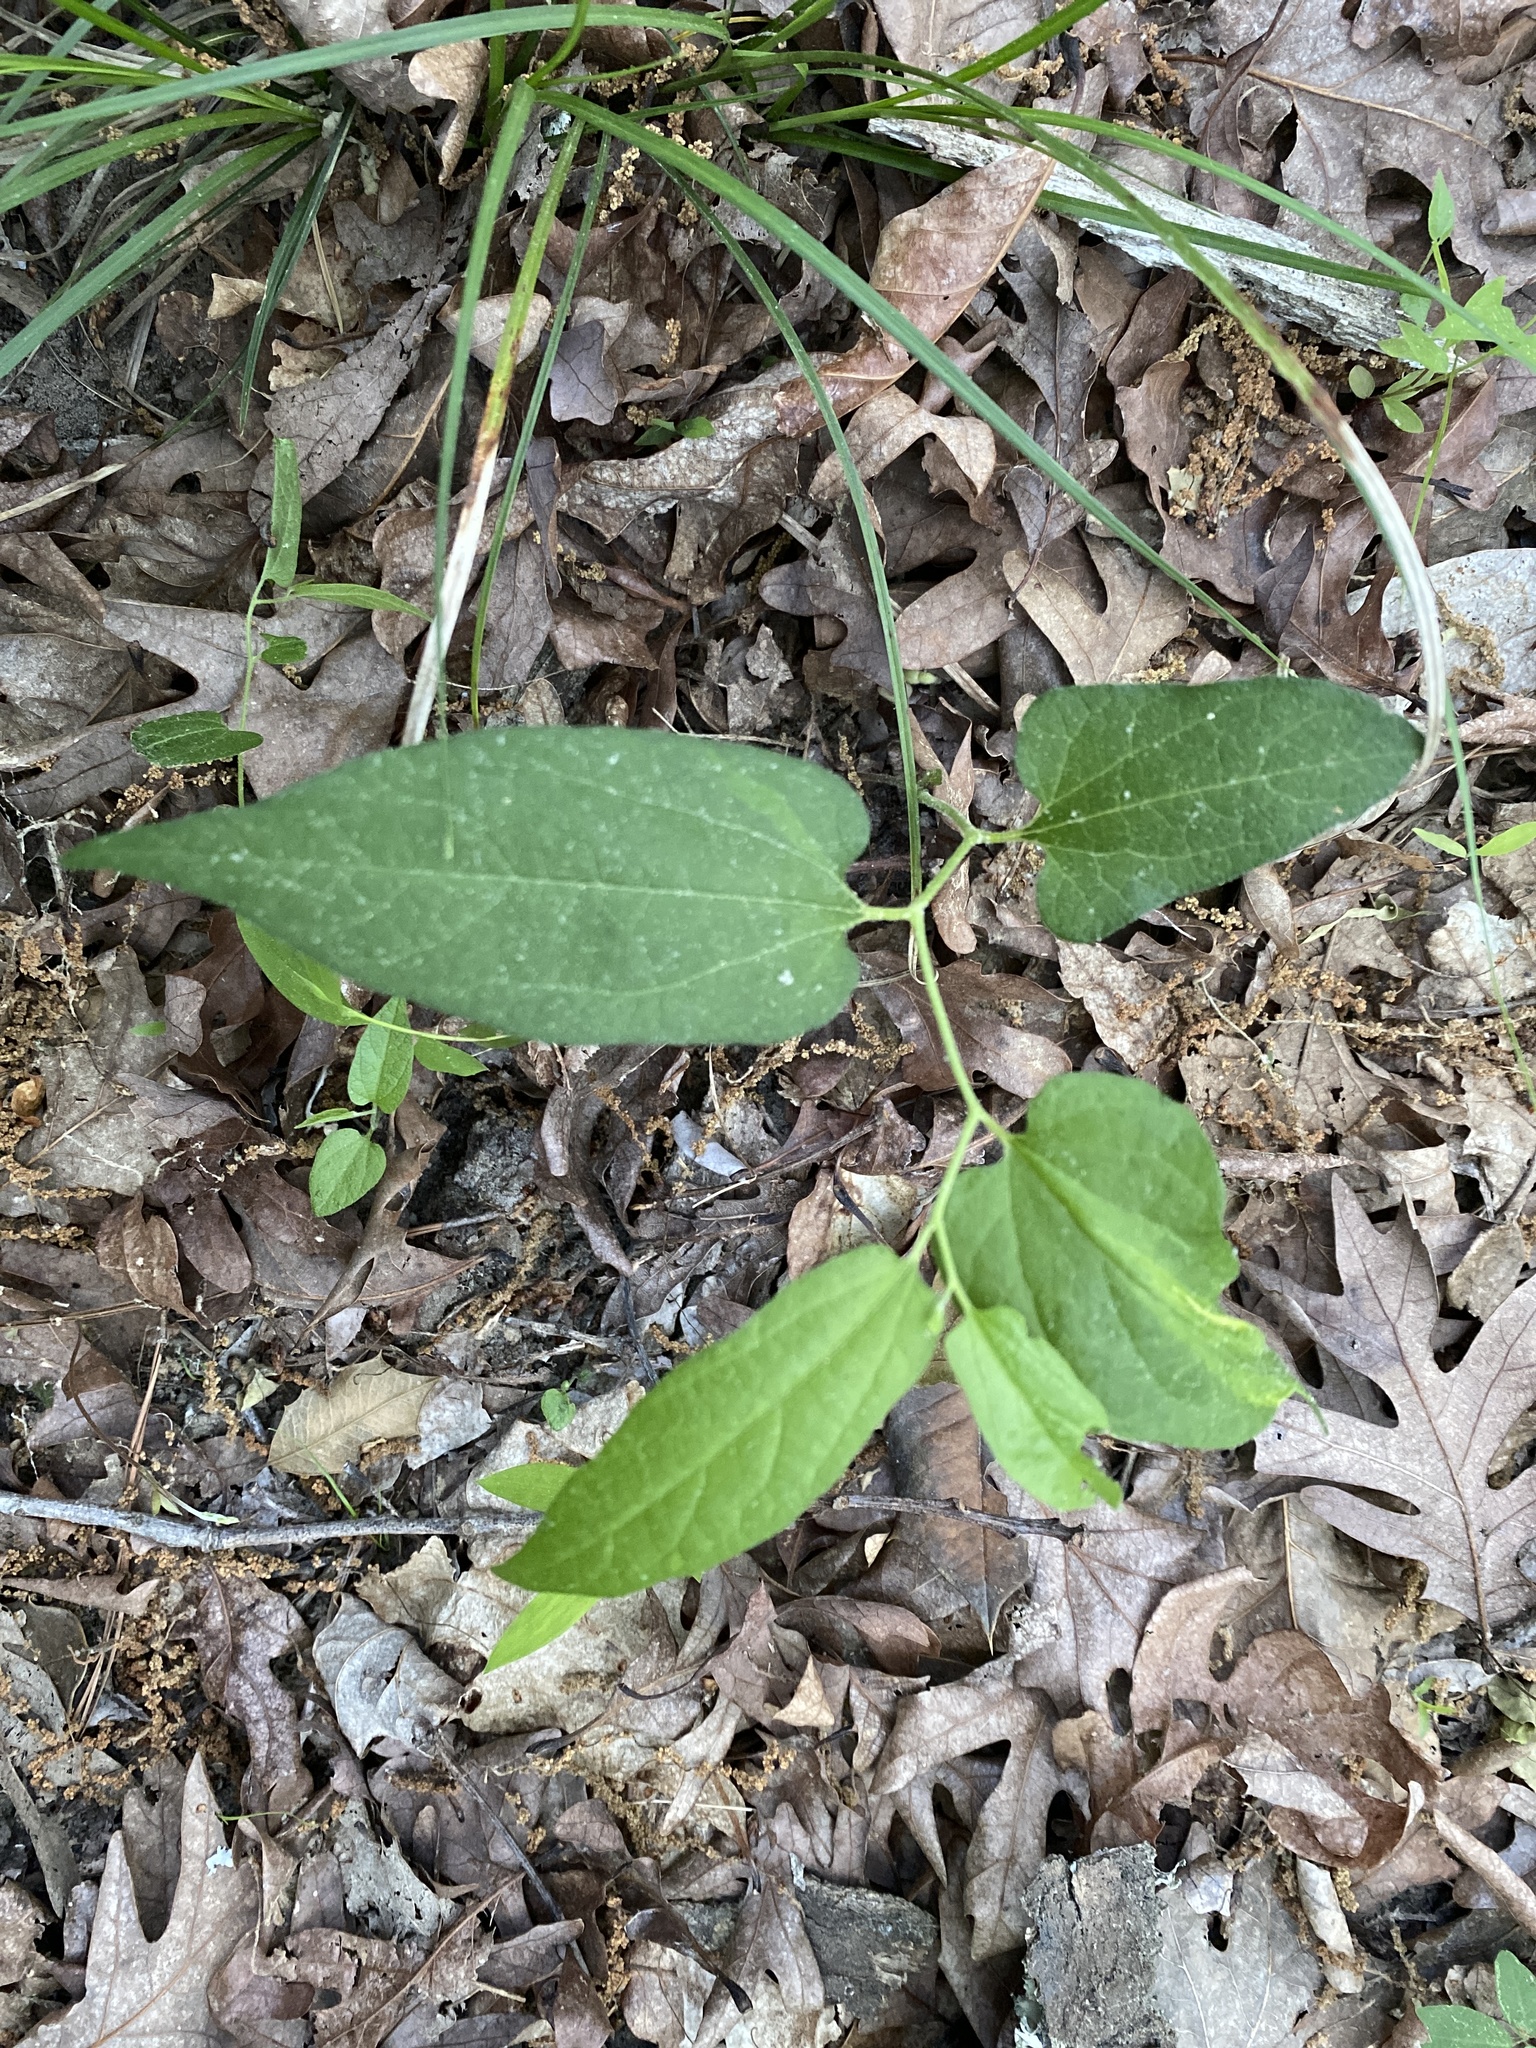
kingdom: Plantae
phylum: Tracheophyta
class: Magnoliopsida
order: Piperales
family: Aristolochiaceae
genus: Endodeca
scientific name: Endodeca serpentaria
